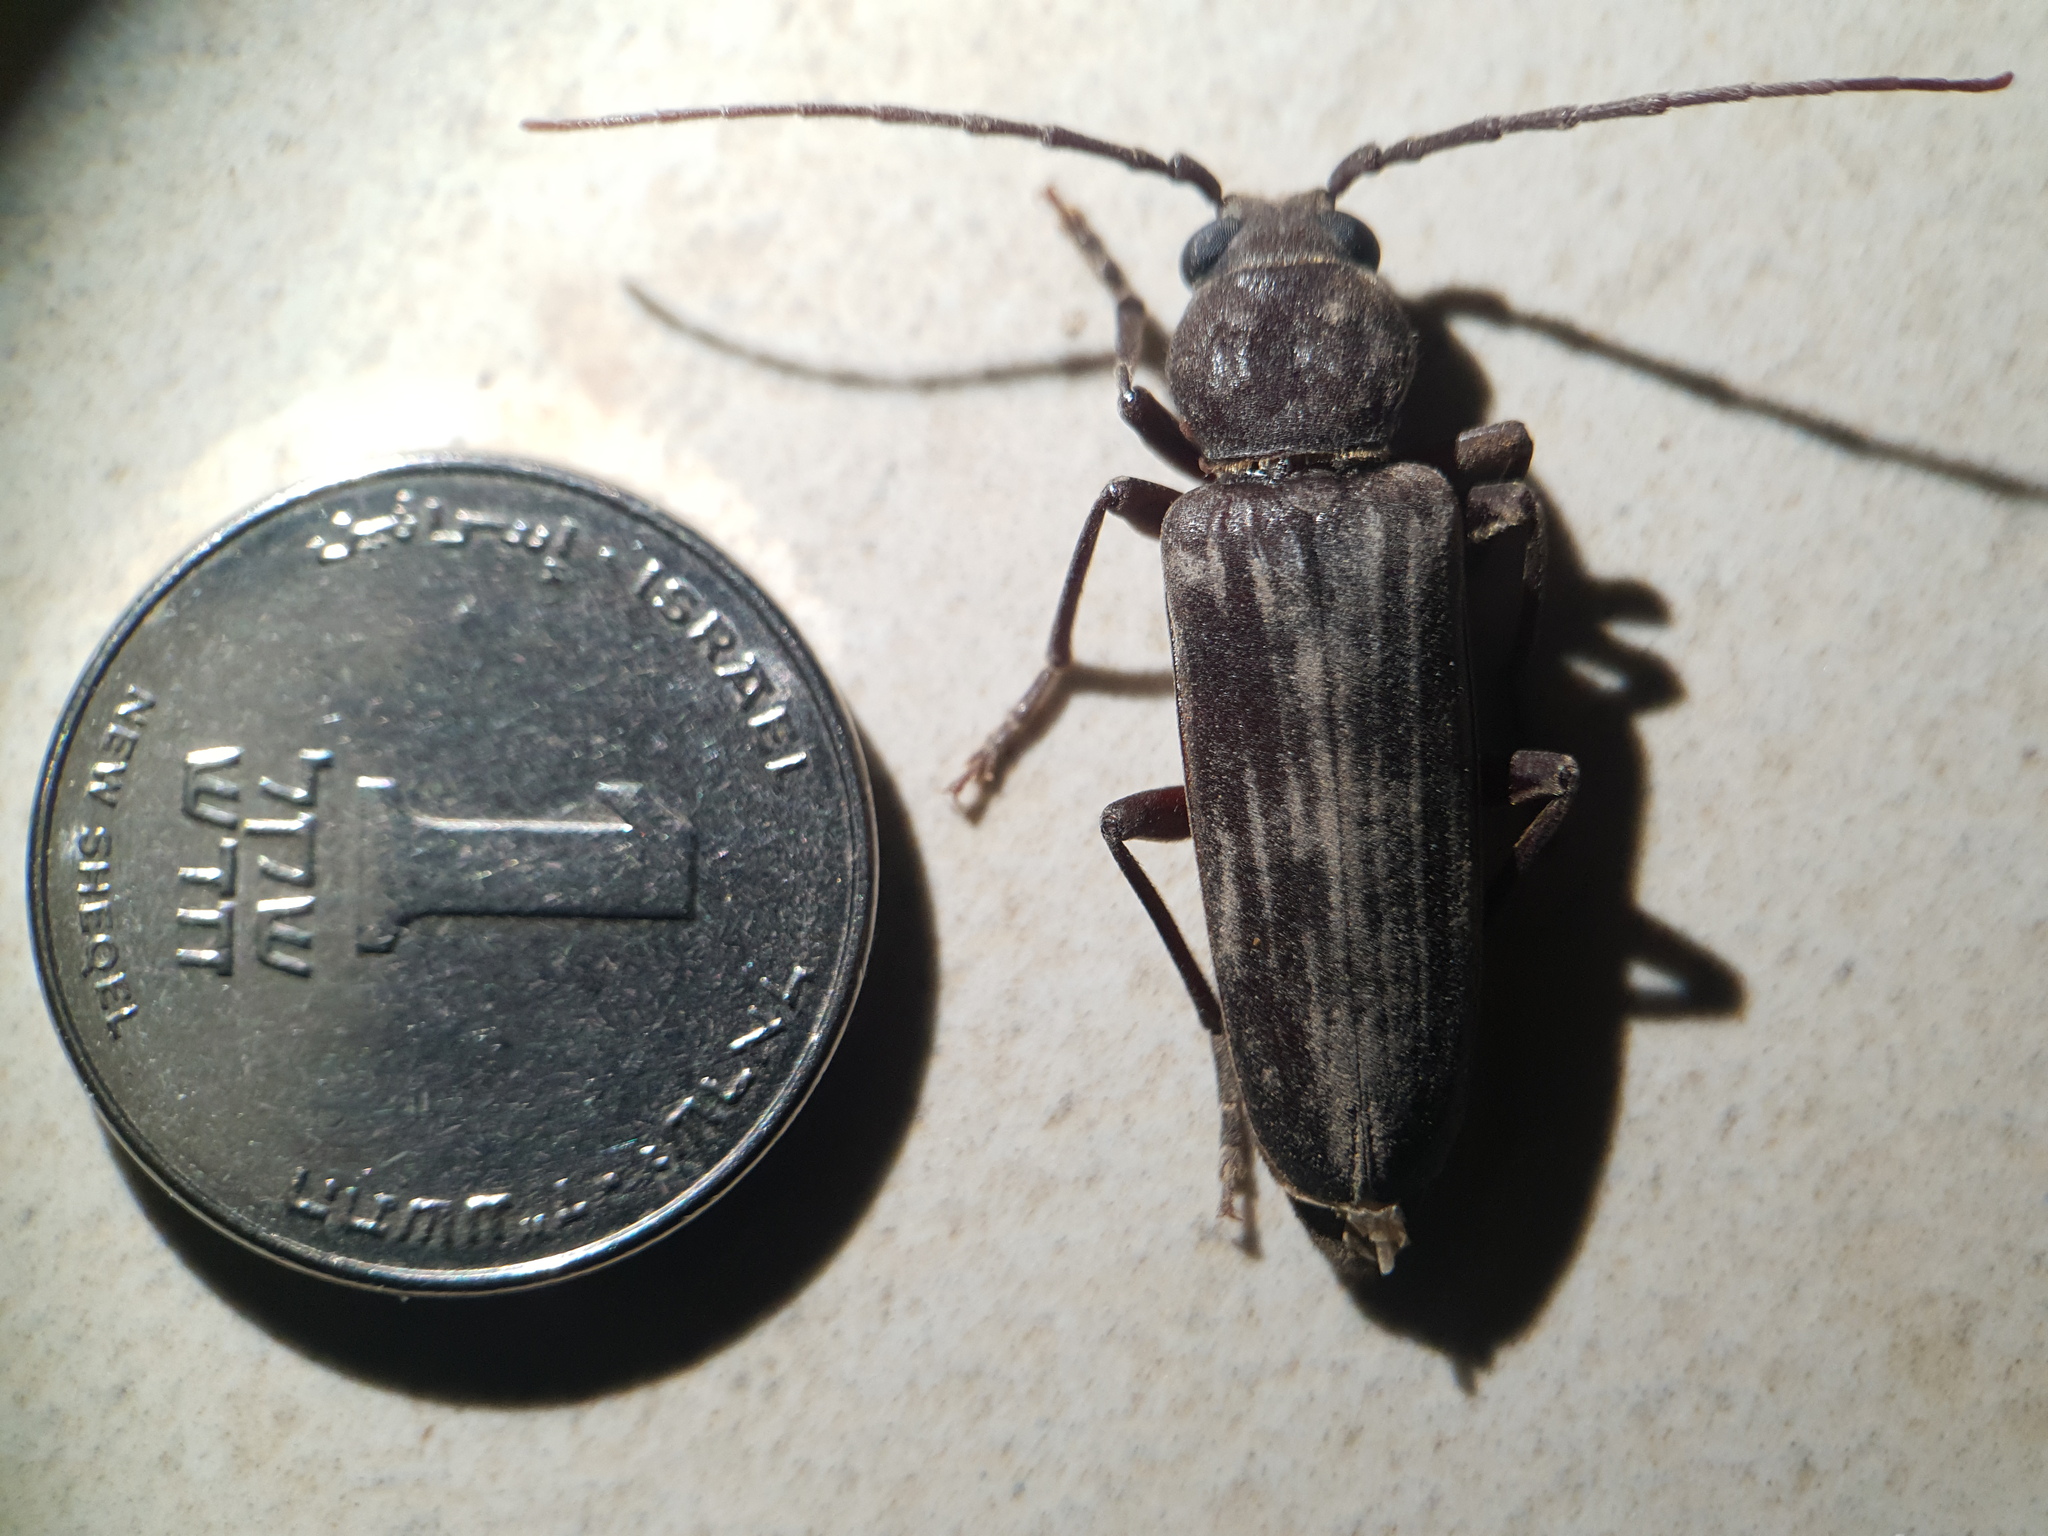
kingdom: Animalia
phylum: Arthropoda
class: Insecta
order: Coleoptera
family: Cerambycidae
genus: Arhopalus
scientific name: Arhopalus ferus
